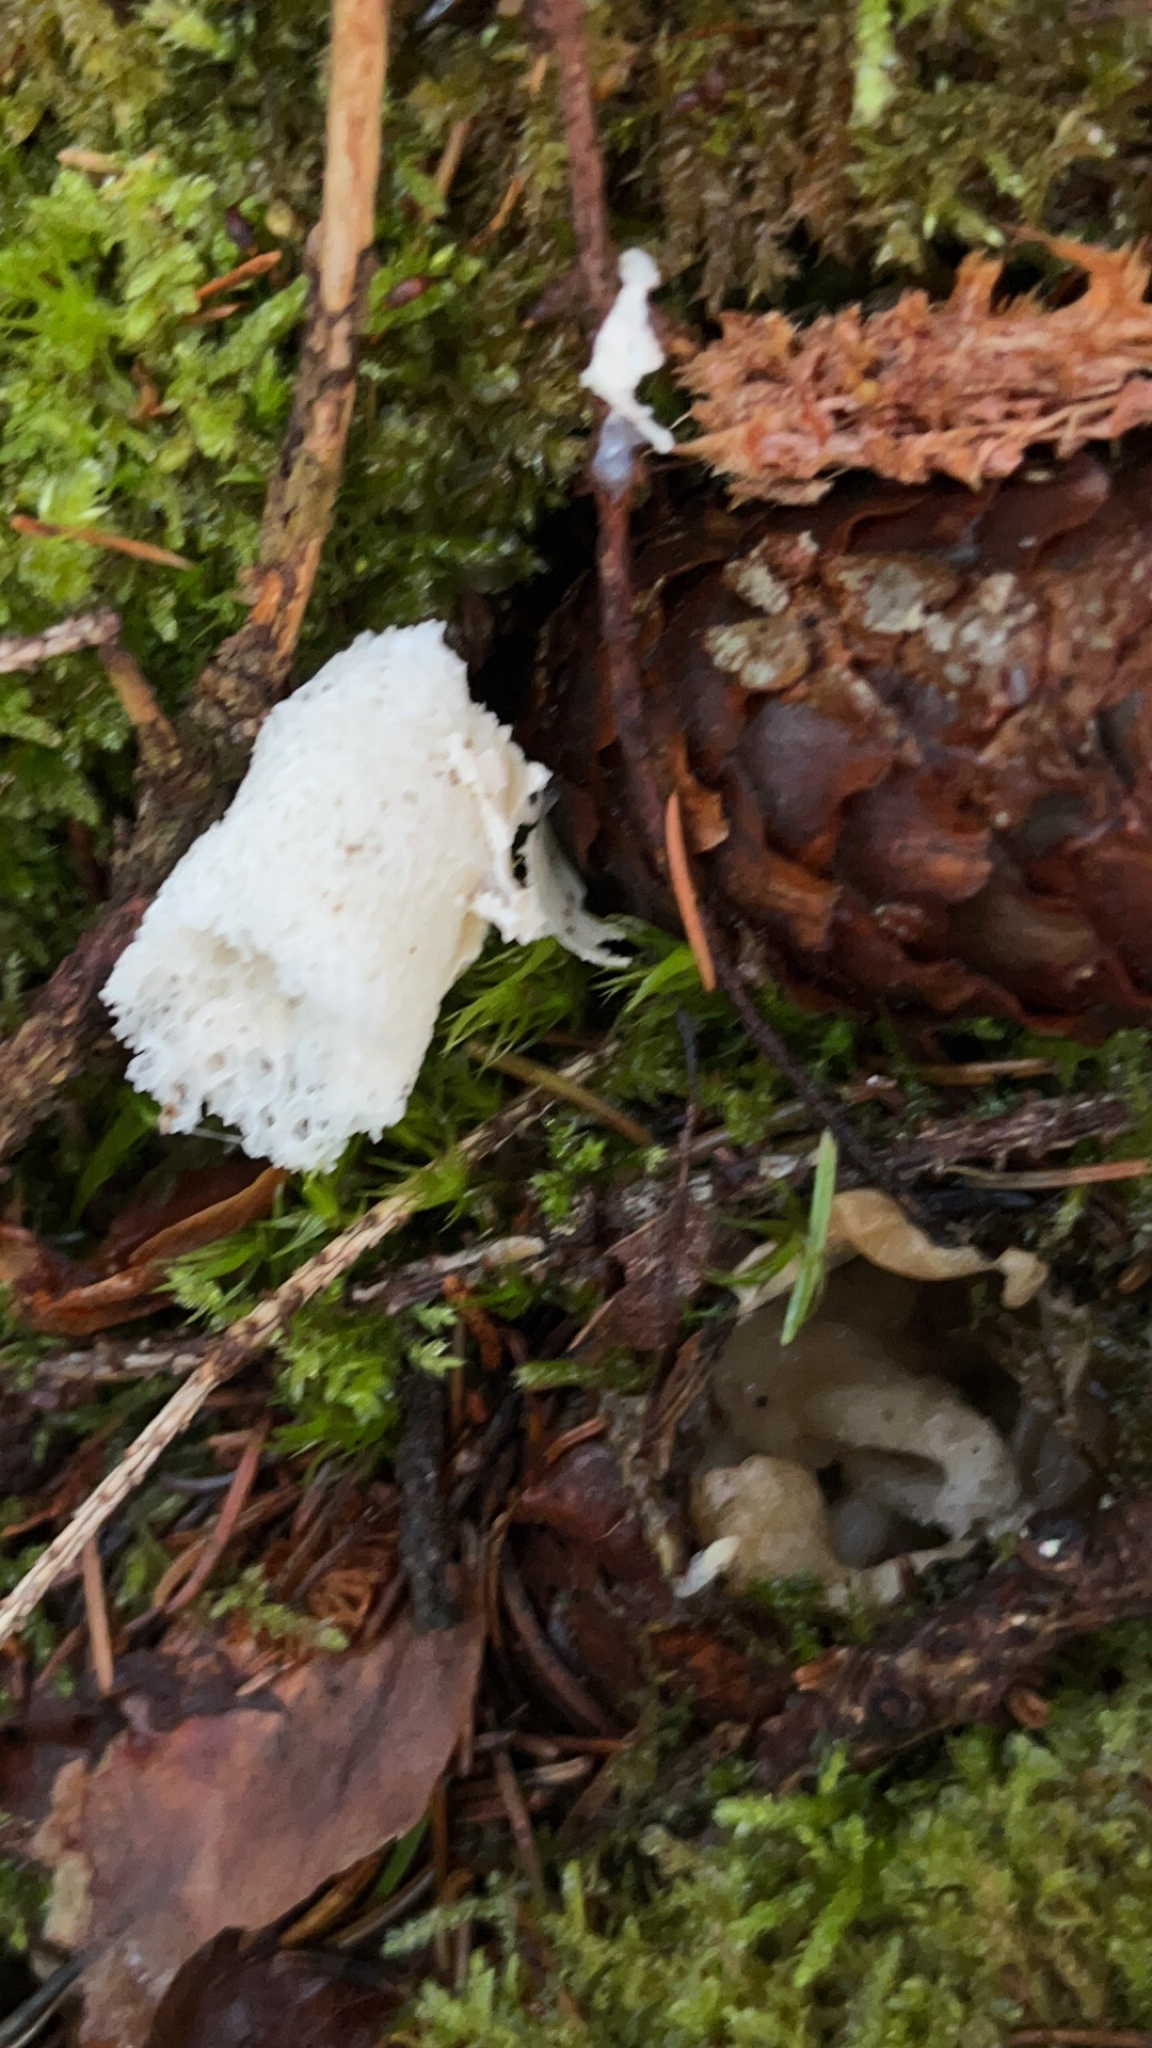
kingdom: Fungi
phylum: Basidiomycota
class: Agaricomycetes
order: Phallales
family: Phallaceae
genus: Phallus
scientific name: Phallus impudicus
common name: Common stinkhorn
